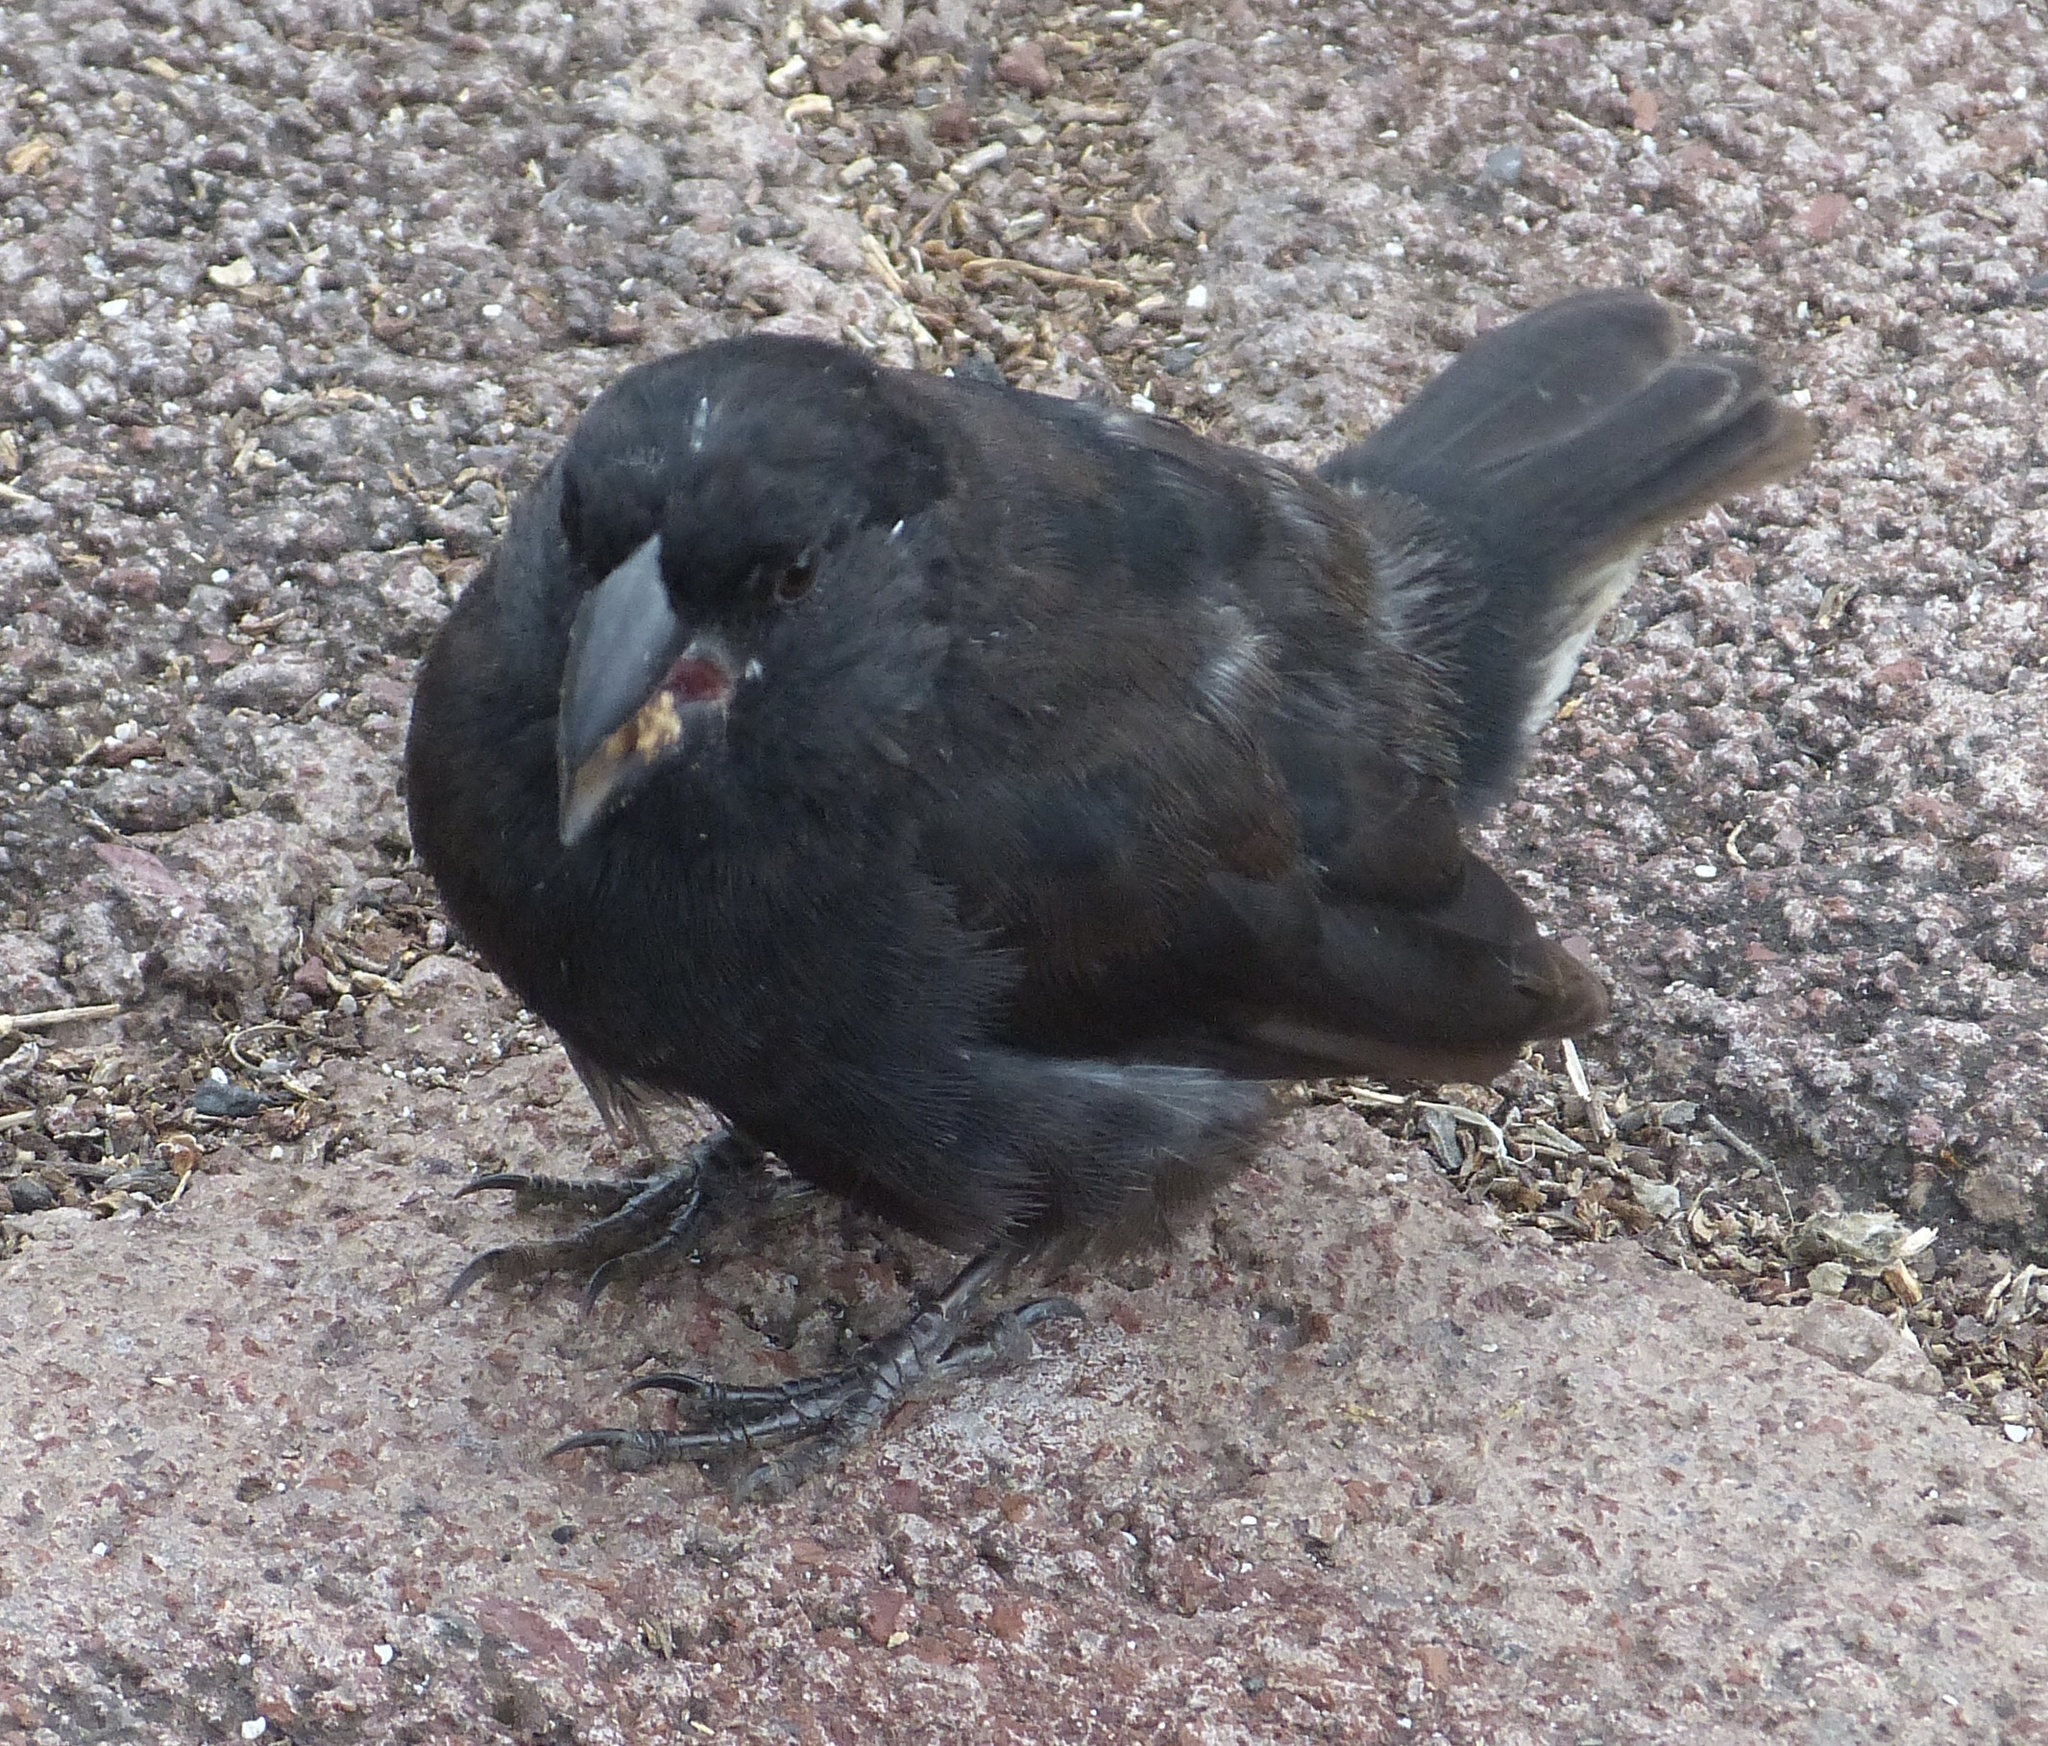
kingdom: Animalia
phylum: Chordata
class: Aves
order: Passeriformes
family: Thraupidae
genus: Geospiza
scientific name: Geospiza fortis
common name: Medium ground finch
